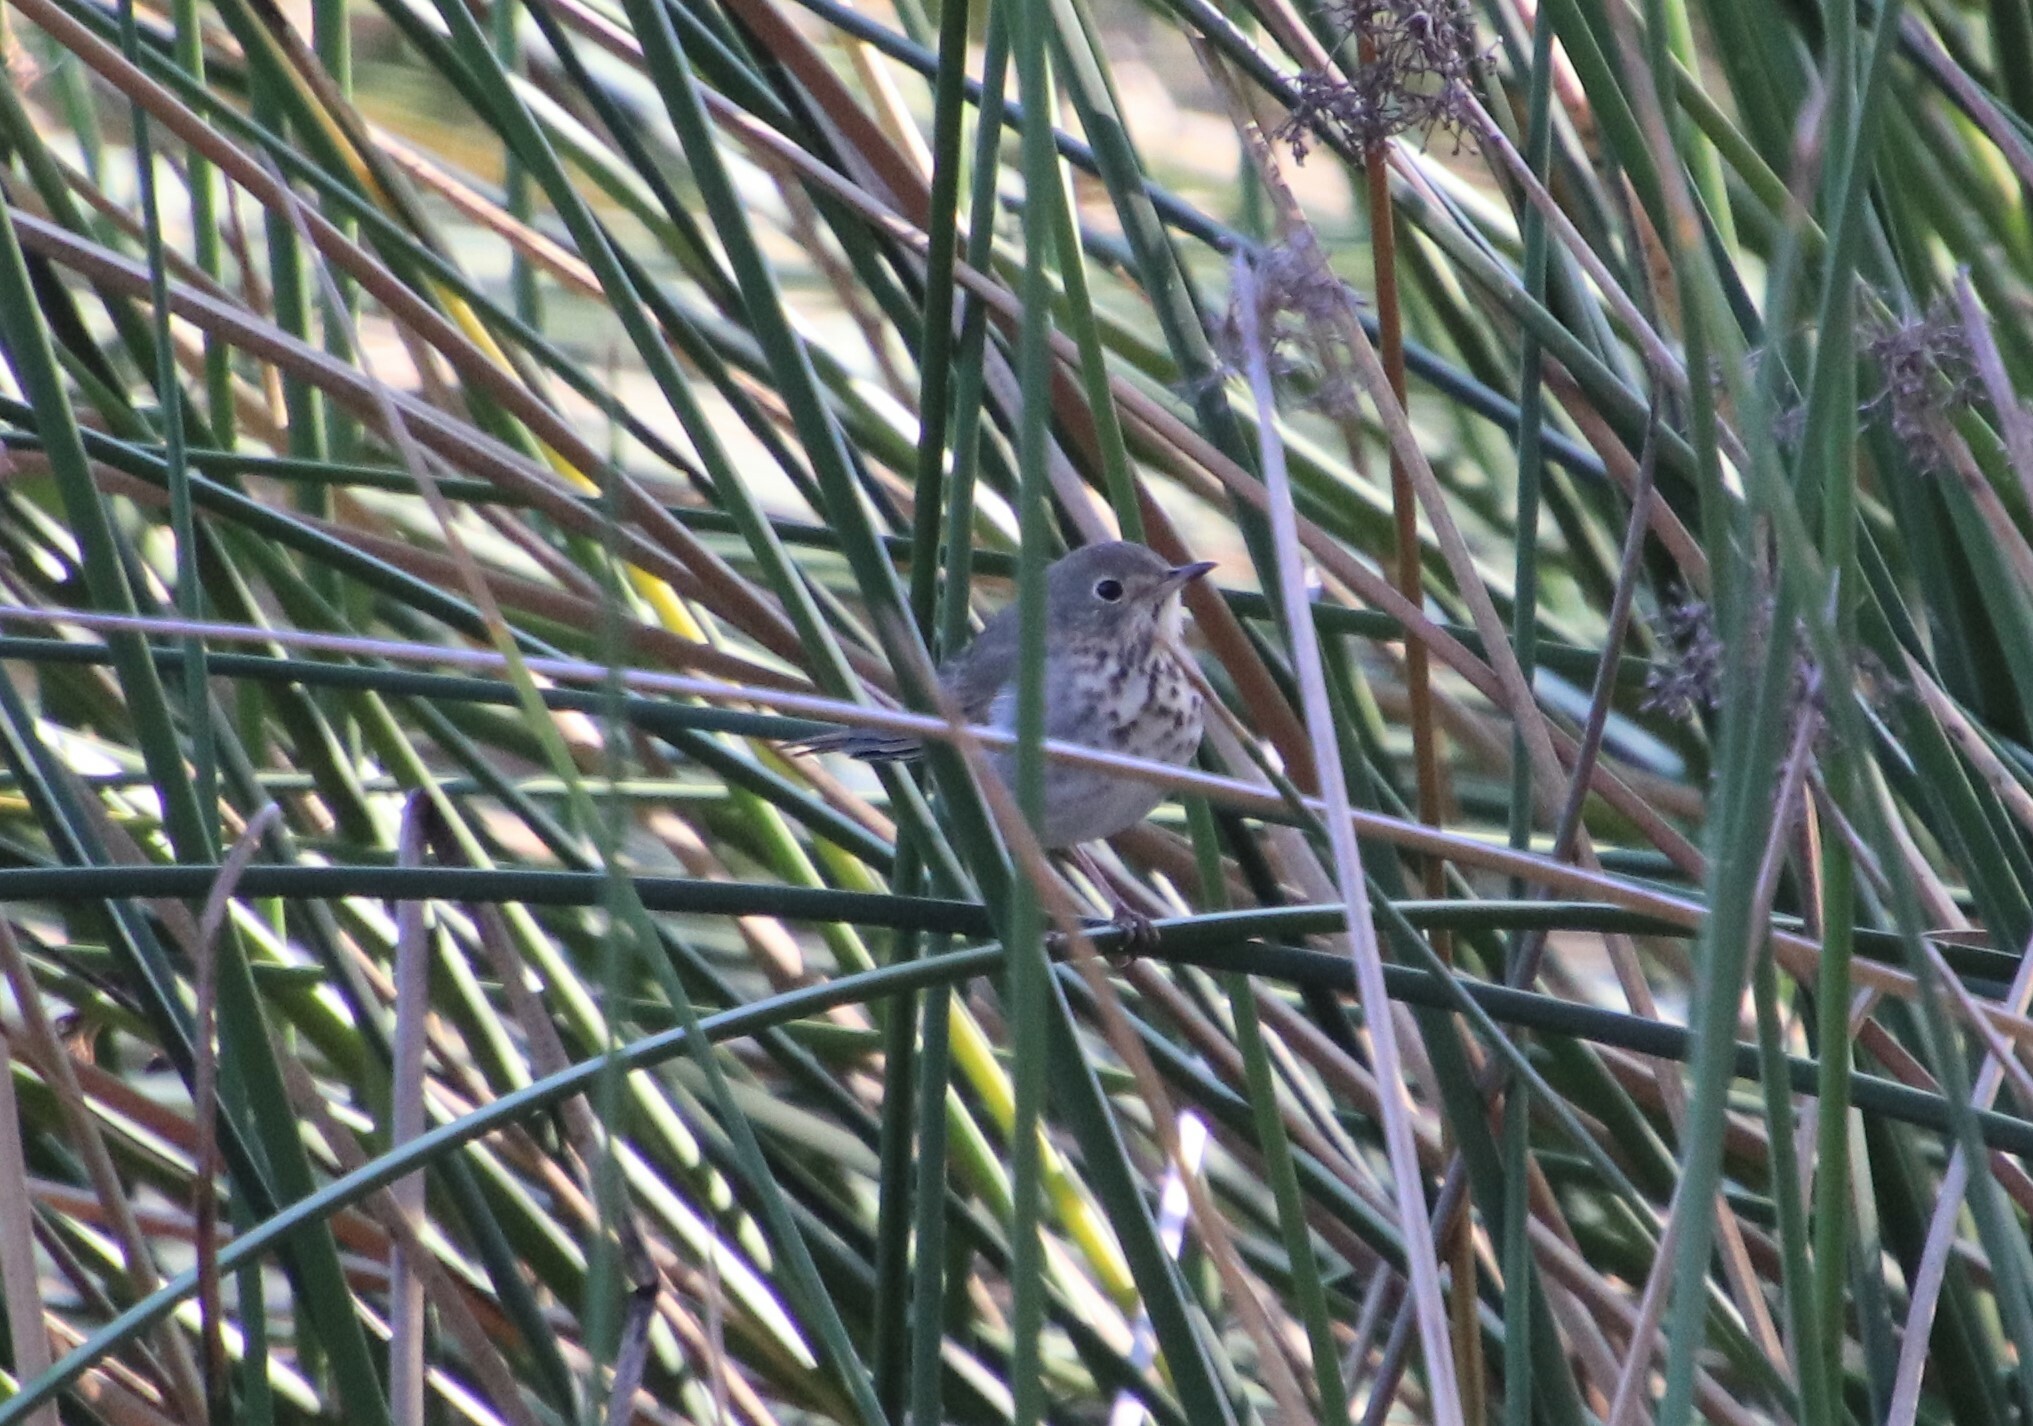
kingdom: Animalia
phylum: Chordata
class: Aves
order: Passeriformes
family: Turdidae
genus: Catharus
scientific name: Catharus guttatus
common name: Hermit thrush
